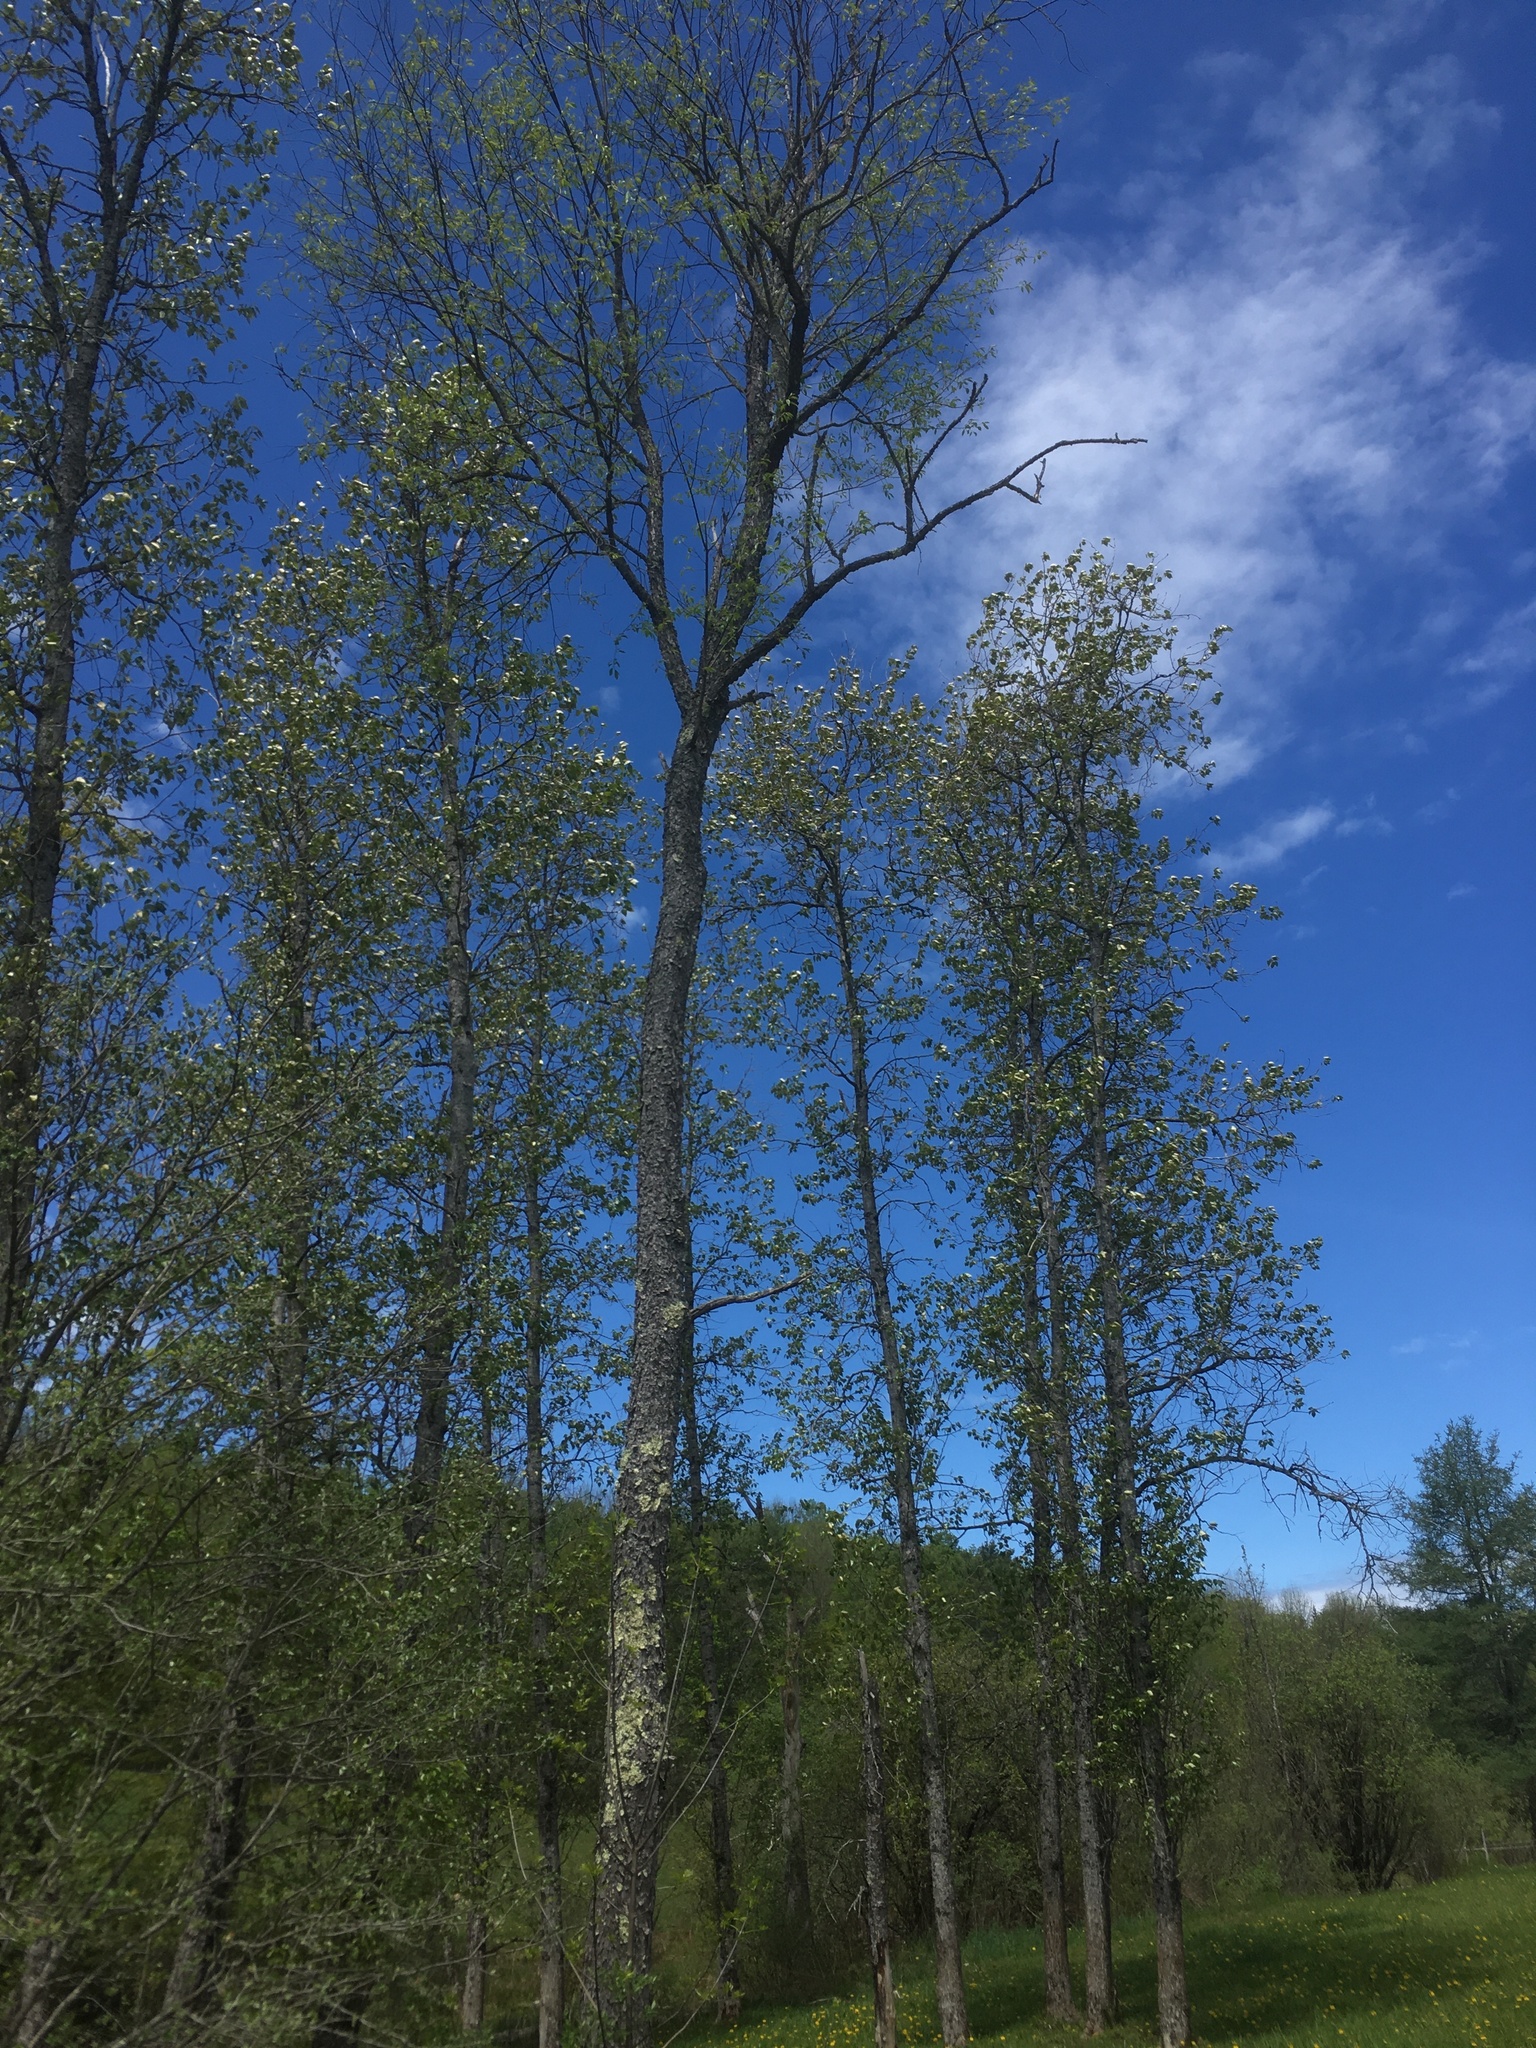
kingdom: Plantae
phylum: Tracheophyta
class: Magnoliopsida
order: Rosales
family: Rosaceae
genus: Prunus
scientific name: Prunus serotina
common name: Black cherry
